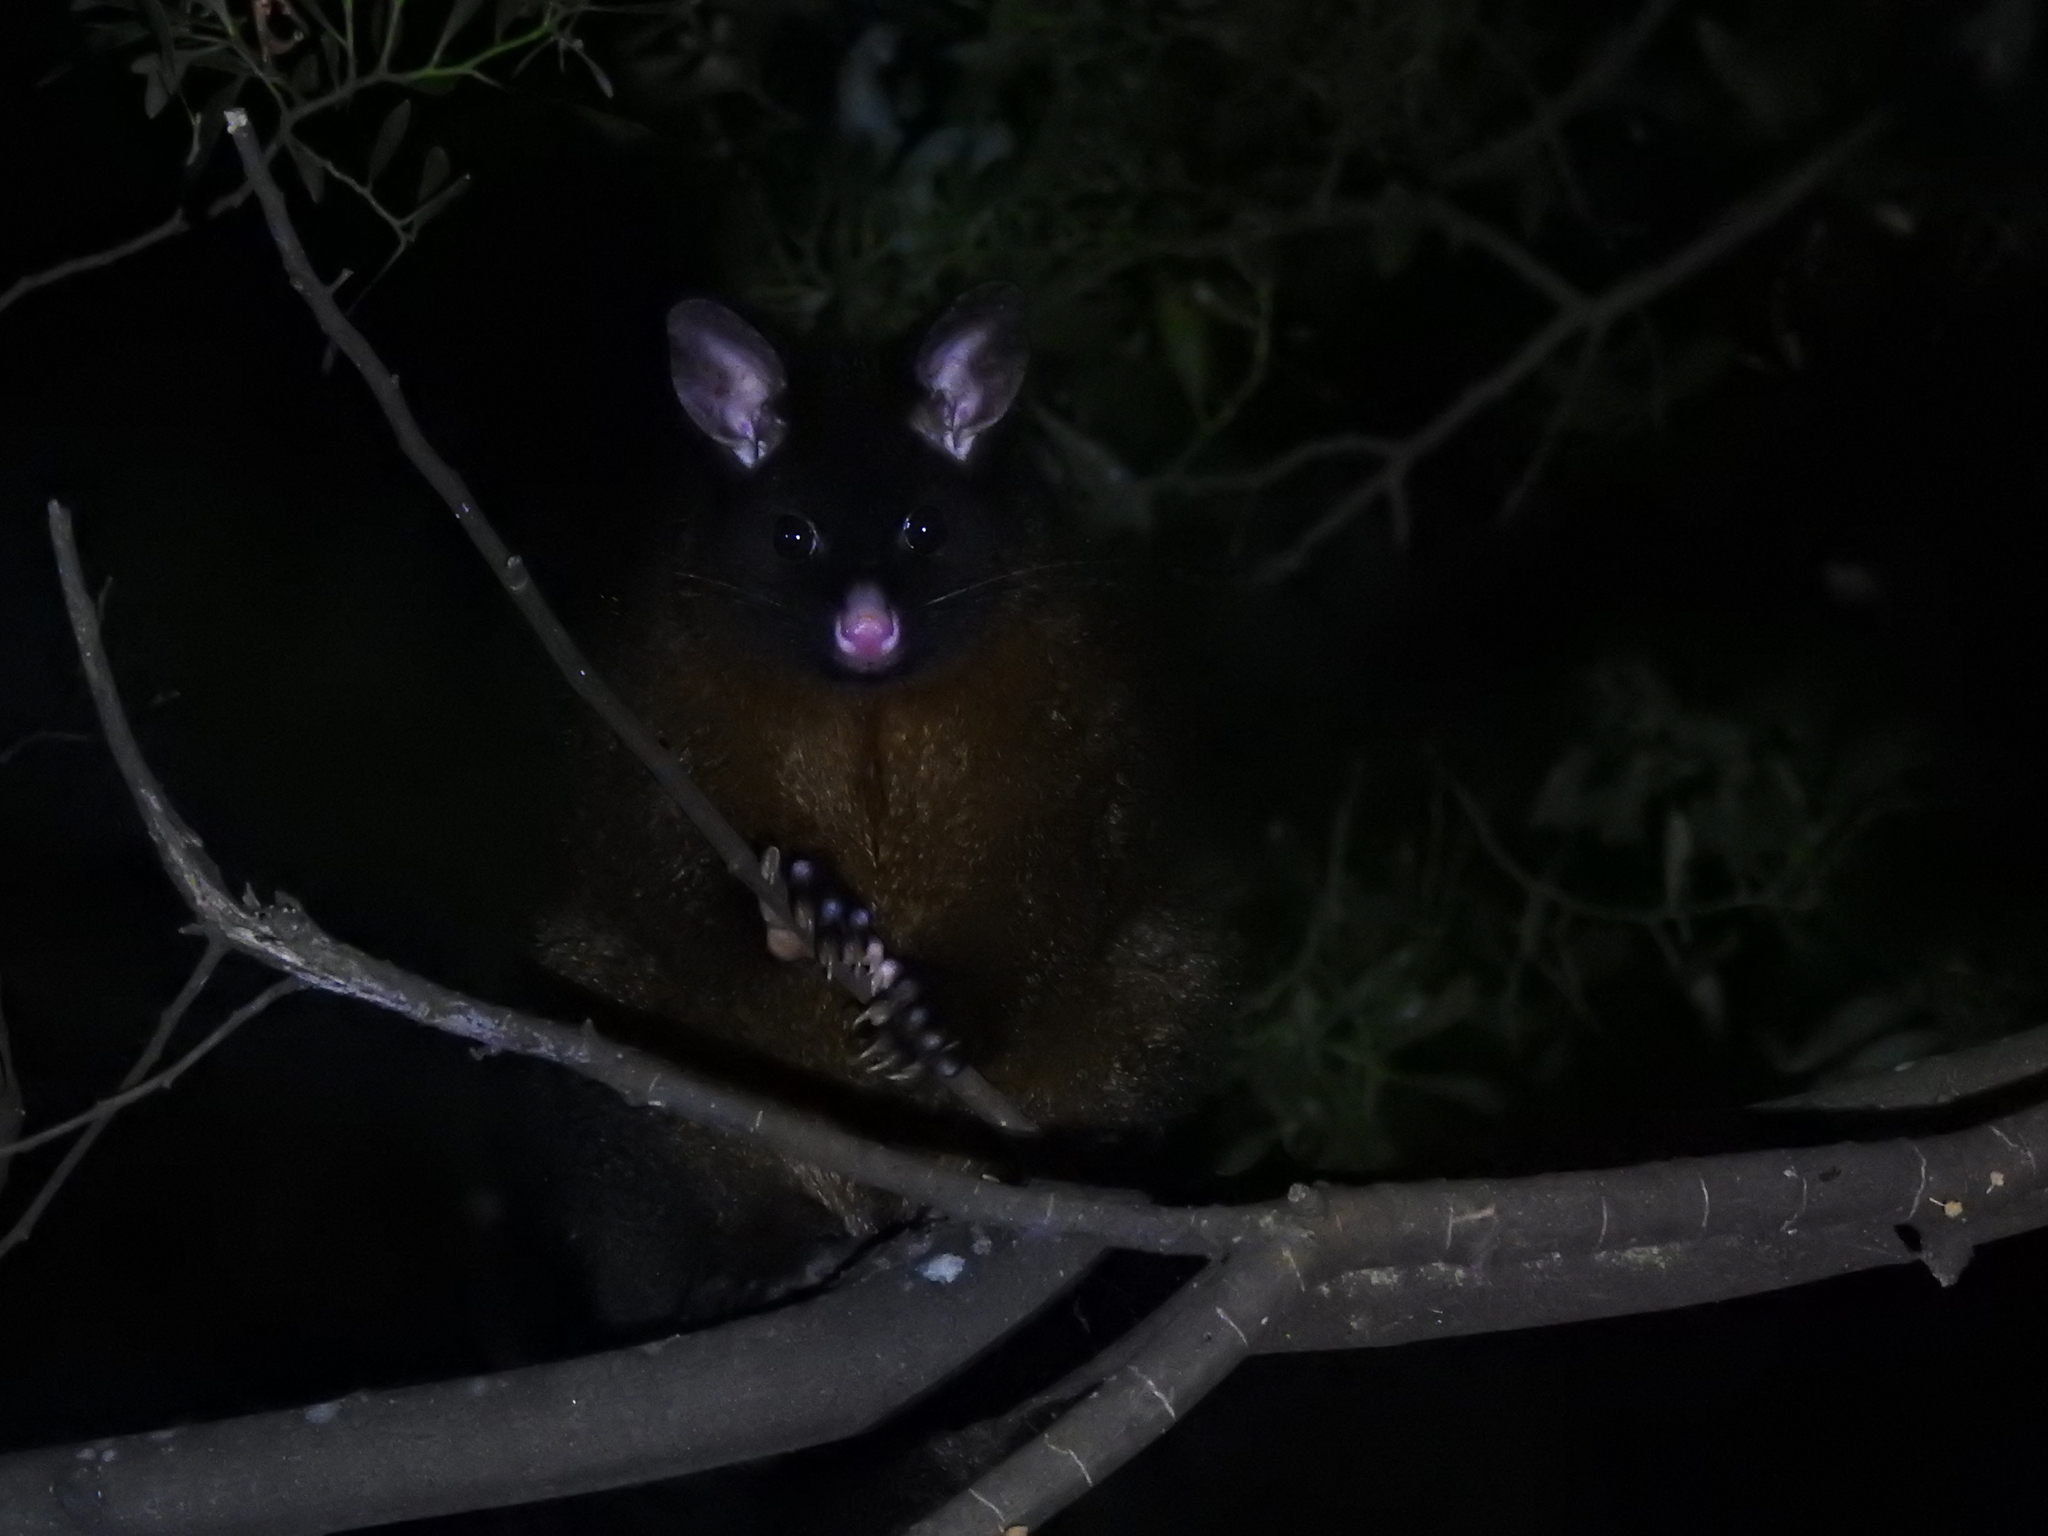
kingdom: Animalia
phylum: Chordata
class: Mammalia
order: Diprotodontia
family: Phalangeridae
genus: Trichosurus
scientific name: Trichosurus vulpecula
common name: Common brushtail
